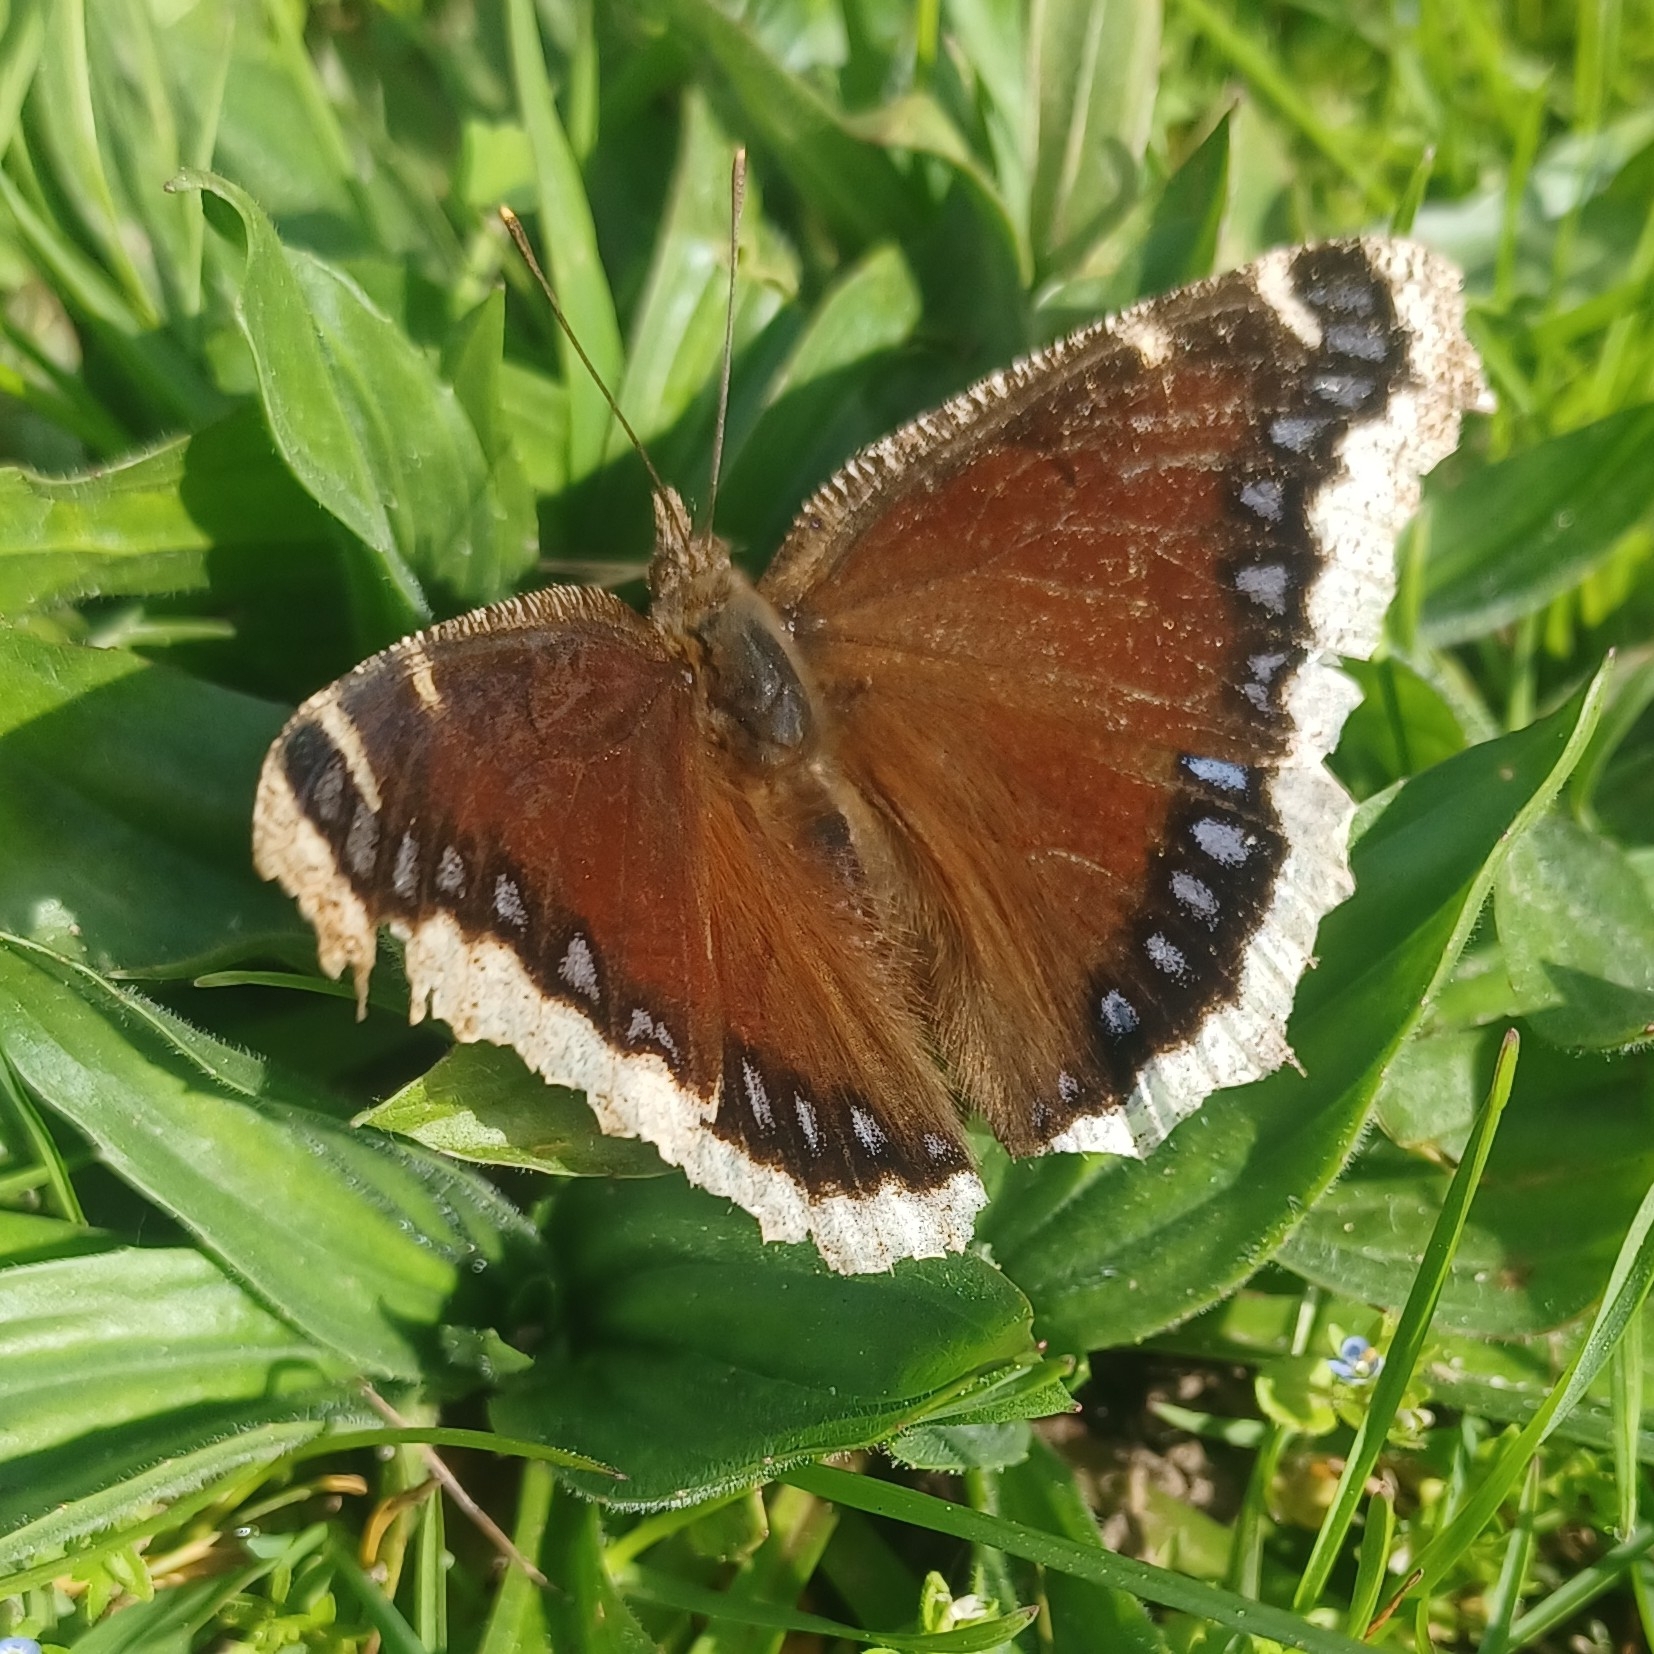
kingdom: Animalia
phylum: Arthropoda
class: Insecta
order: Lepidoptera
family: Nymphalidae
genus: Nymphalis
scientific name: Nymphalis antiopa
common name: Camberwell beauty
